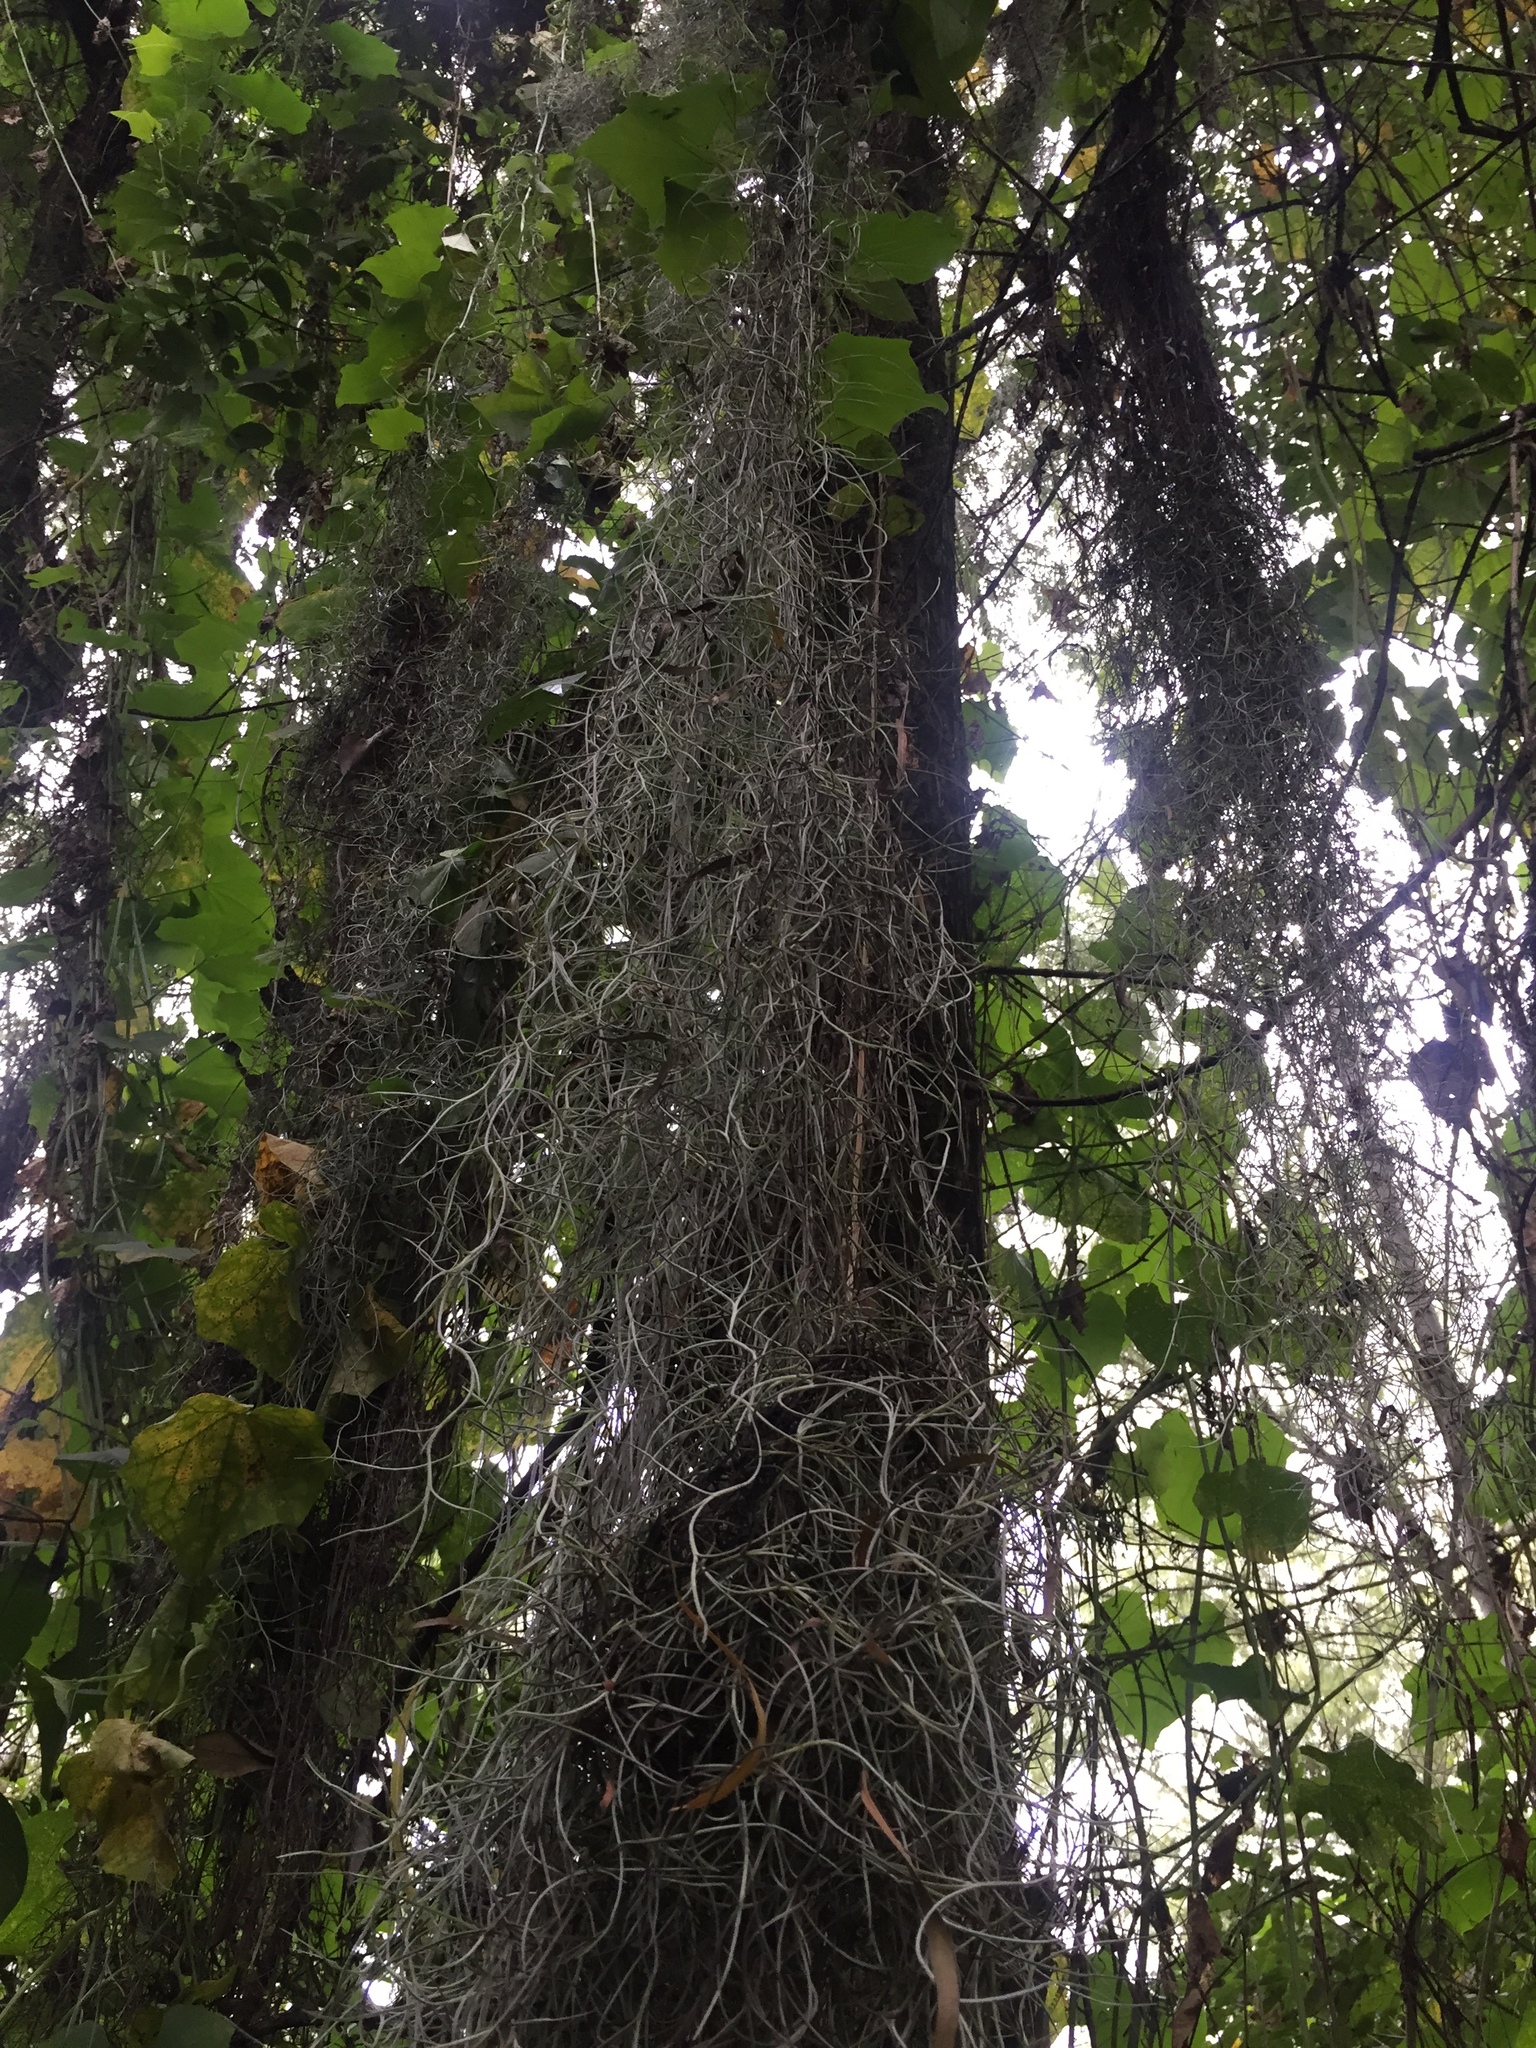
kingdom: Plantae
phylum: Tracheophyta
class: Liliopsida
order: Poales
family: Bromeliaceae
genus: Tillandsia
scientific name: Tillandsia usneoides
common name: Spanish moss
